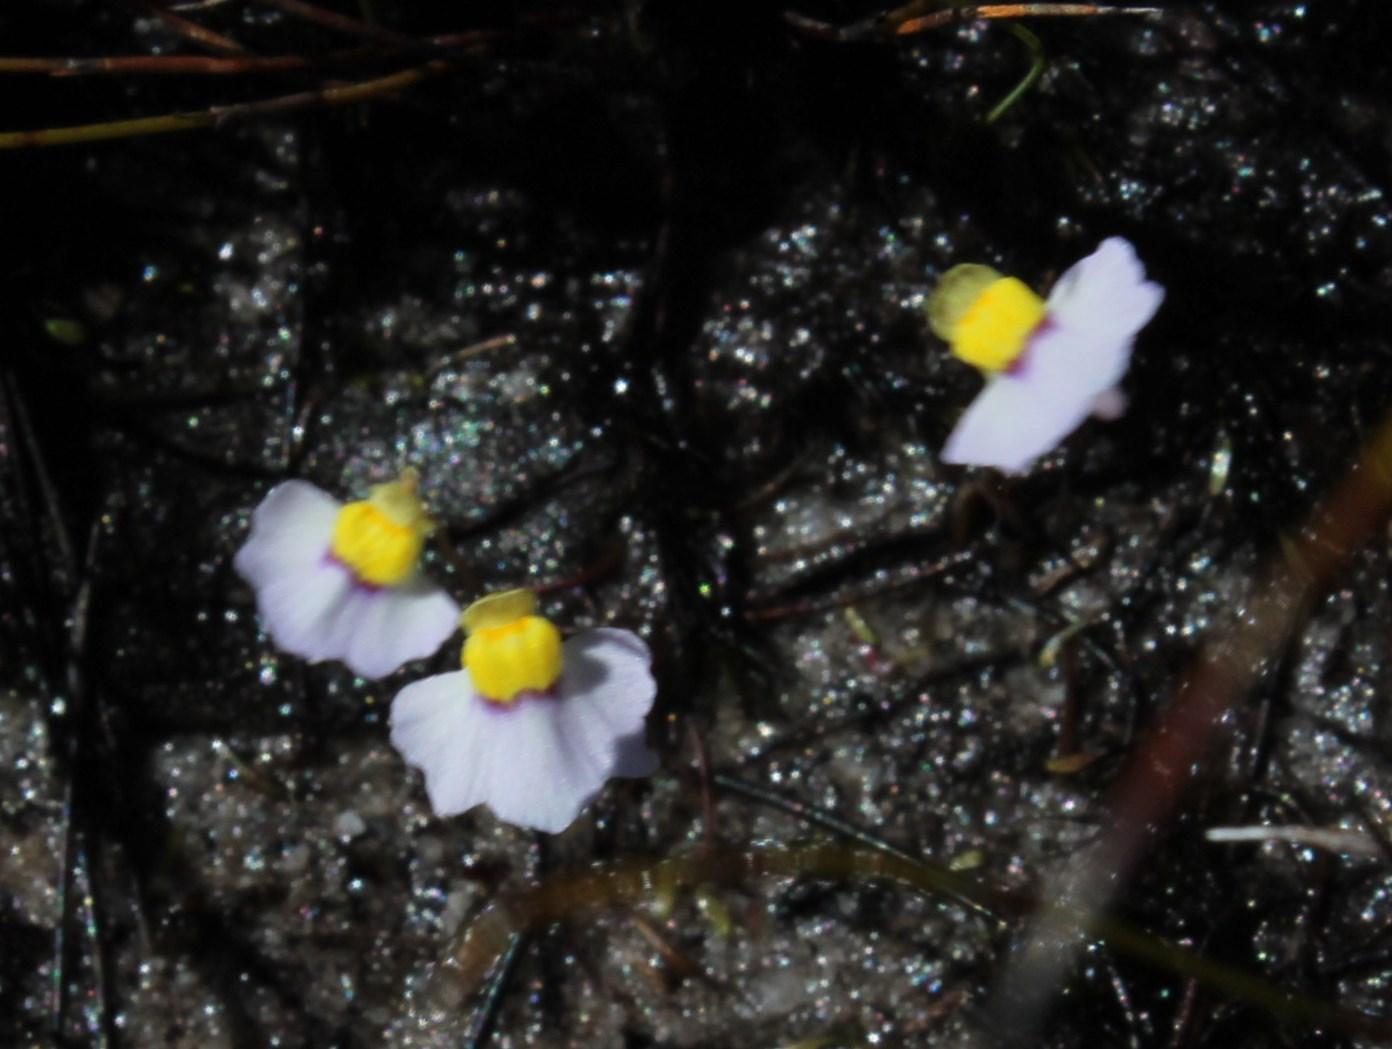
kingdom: Plantae
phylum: Tracheophyta
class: Magnoliopsida
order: Lamiales
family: Lentibulariaceae
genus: Utricularia
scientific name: Utricularia bisquamata
